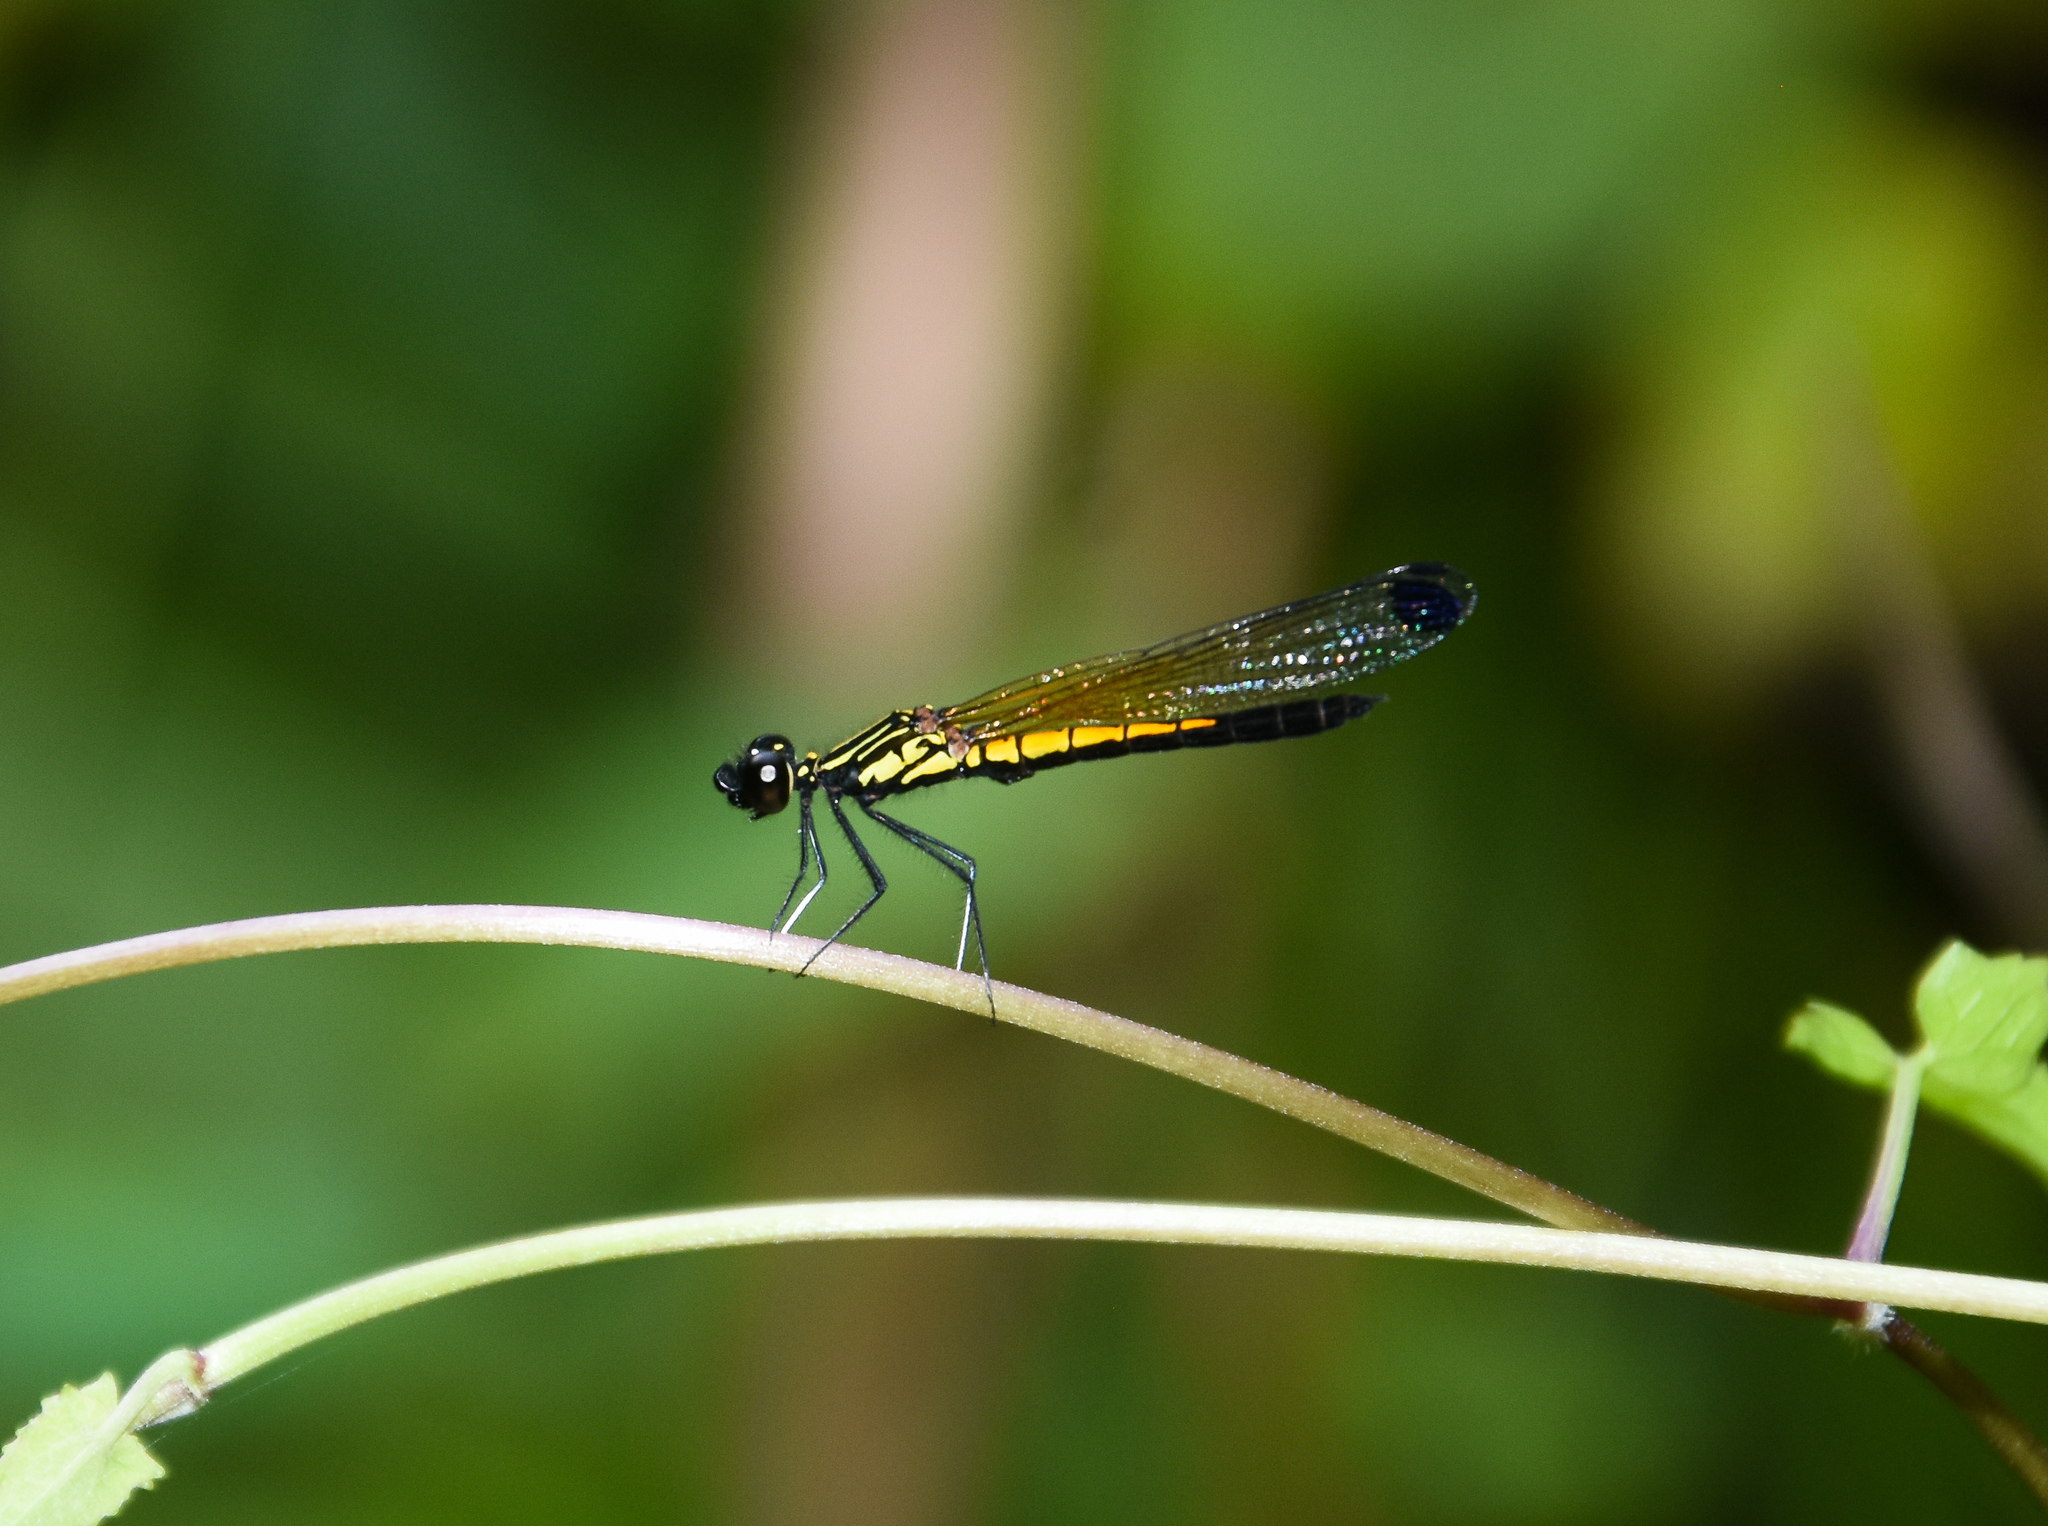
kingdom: Animalia
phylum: Arthropoda
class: Insecta
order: Odonata
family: Chlorocyphidae
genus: Libellago
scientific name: Libellago lineata
